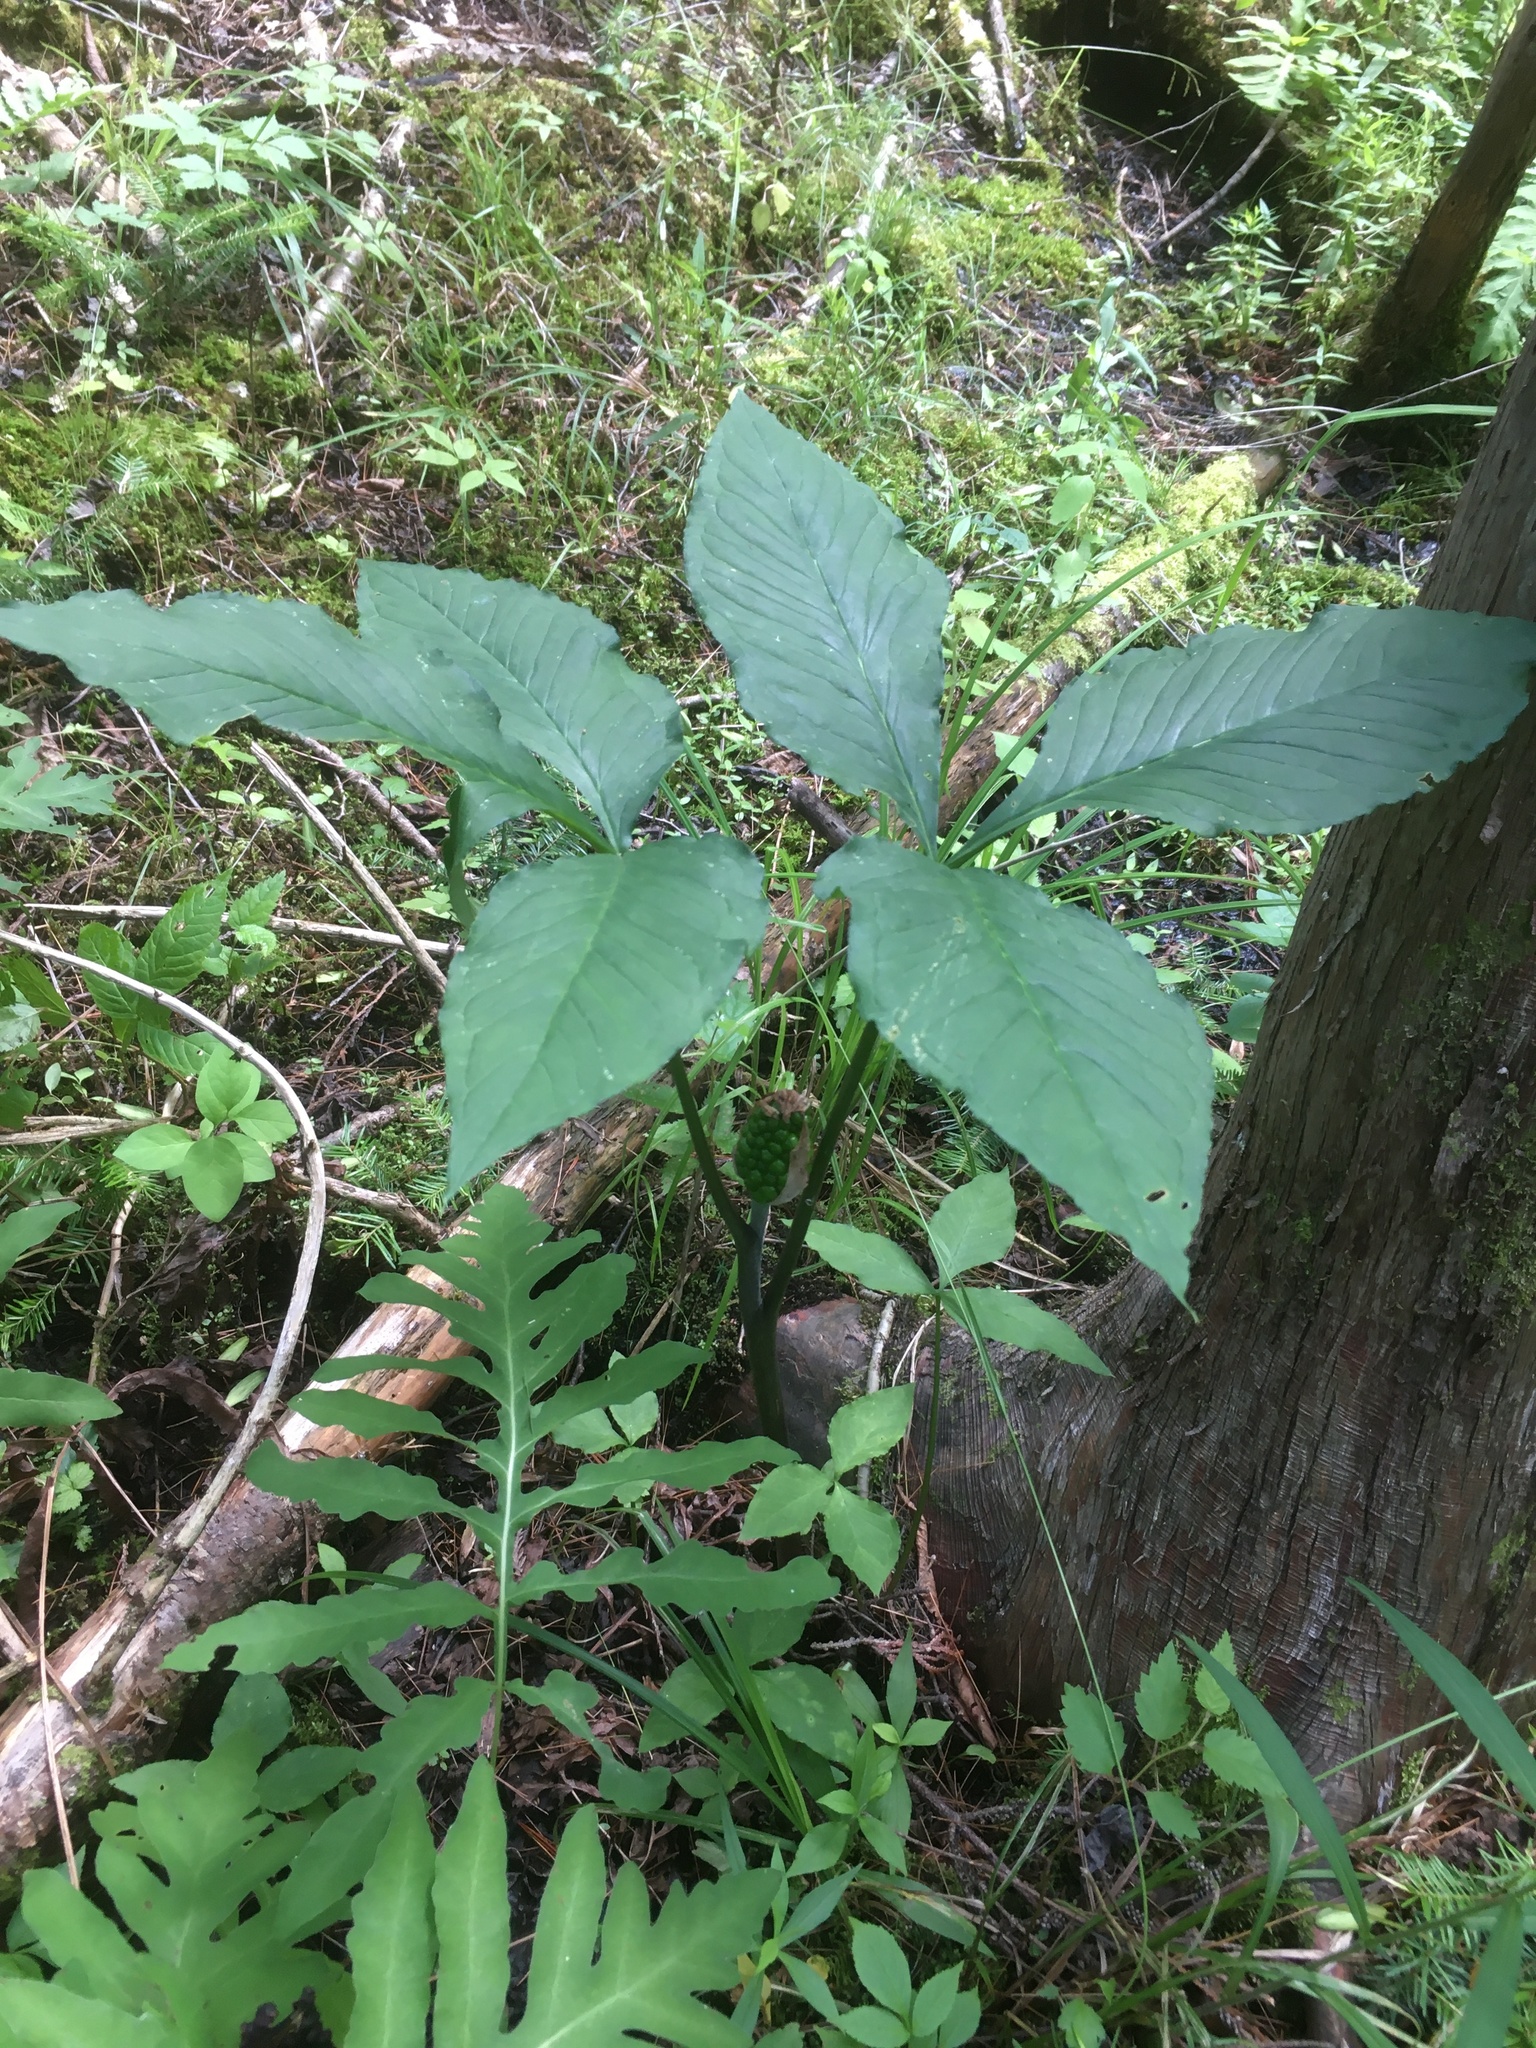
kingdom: Plantae
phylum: Tracheophyta
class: Liliopsida
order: Alismatales
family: Araceae
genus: Arisaema
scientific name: Arisaema triphyllum
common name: Jack-in-the-pulpit
